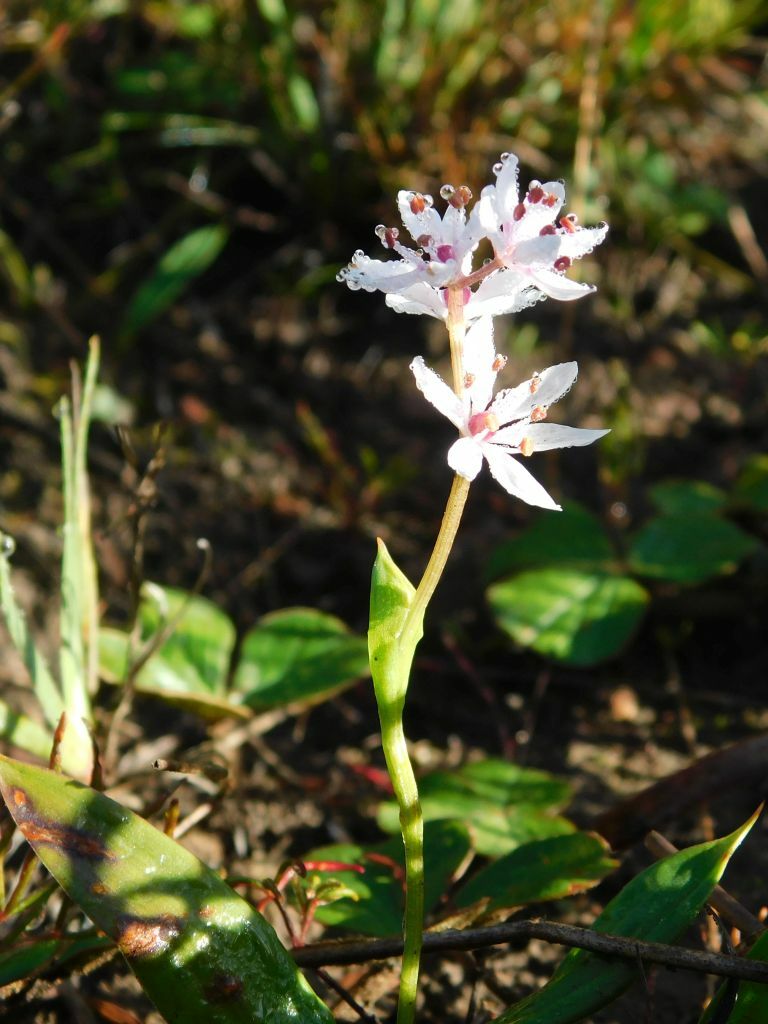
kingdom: Plantae
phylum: Tracheophyta
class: Liliopsida
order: Liliales
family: Colchicaceae
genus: Wurmbea
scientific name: Wurmbea punctata
